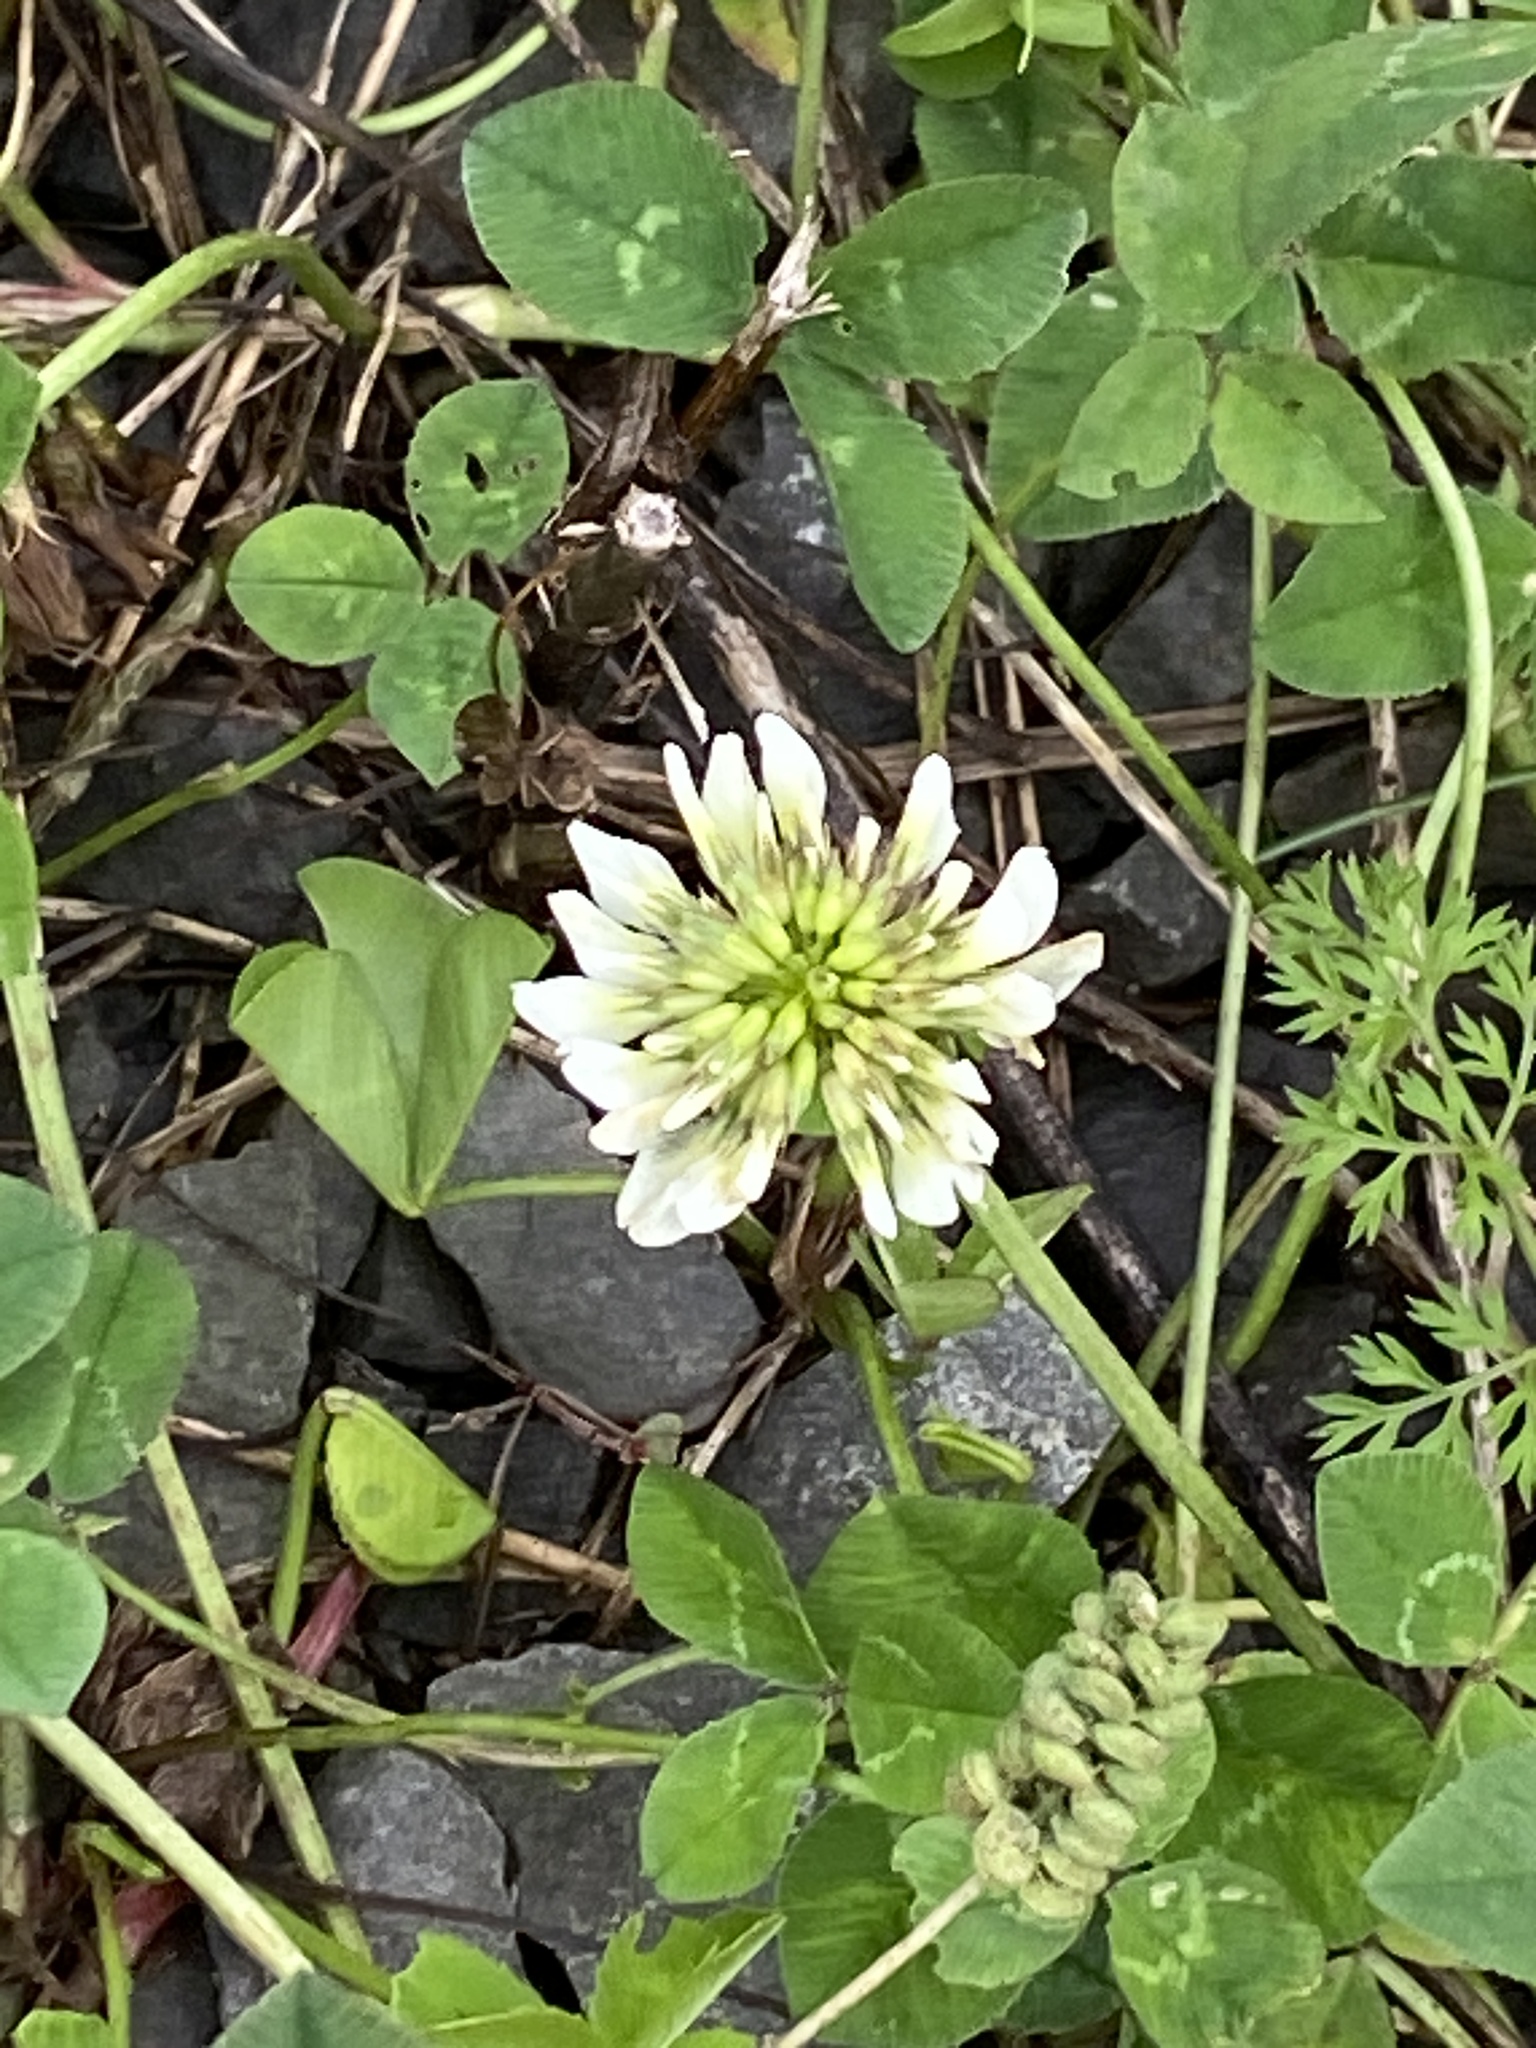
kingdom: Plantae
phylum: Tracheophyta
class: Magnoliopsida
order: Fabales
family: Fabaceae
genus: Trifolium
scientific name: Trifolium repens
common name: White clover
